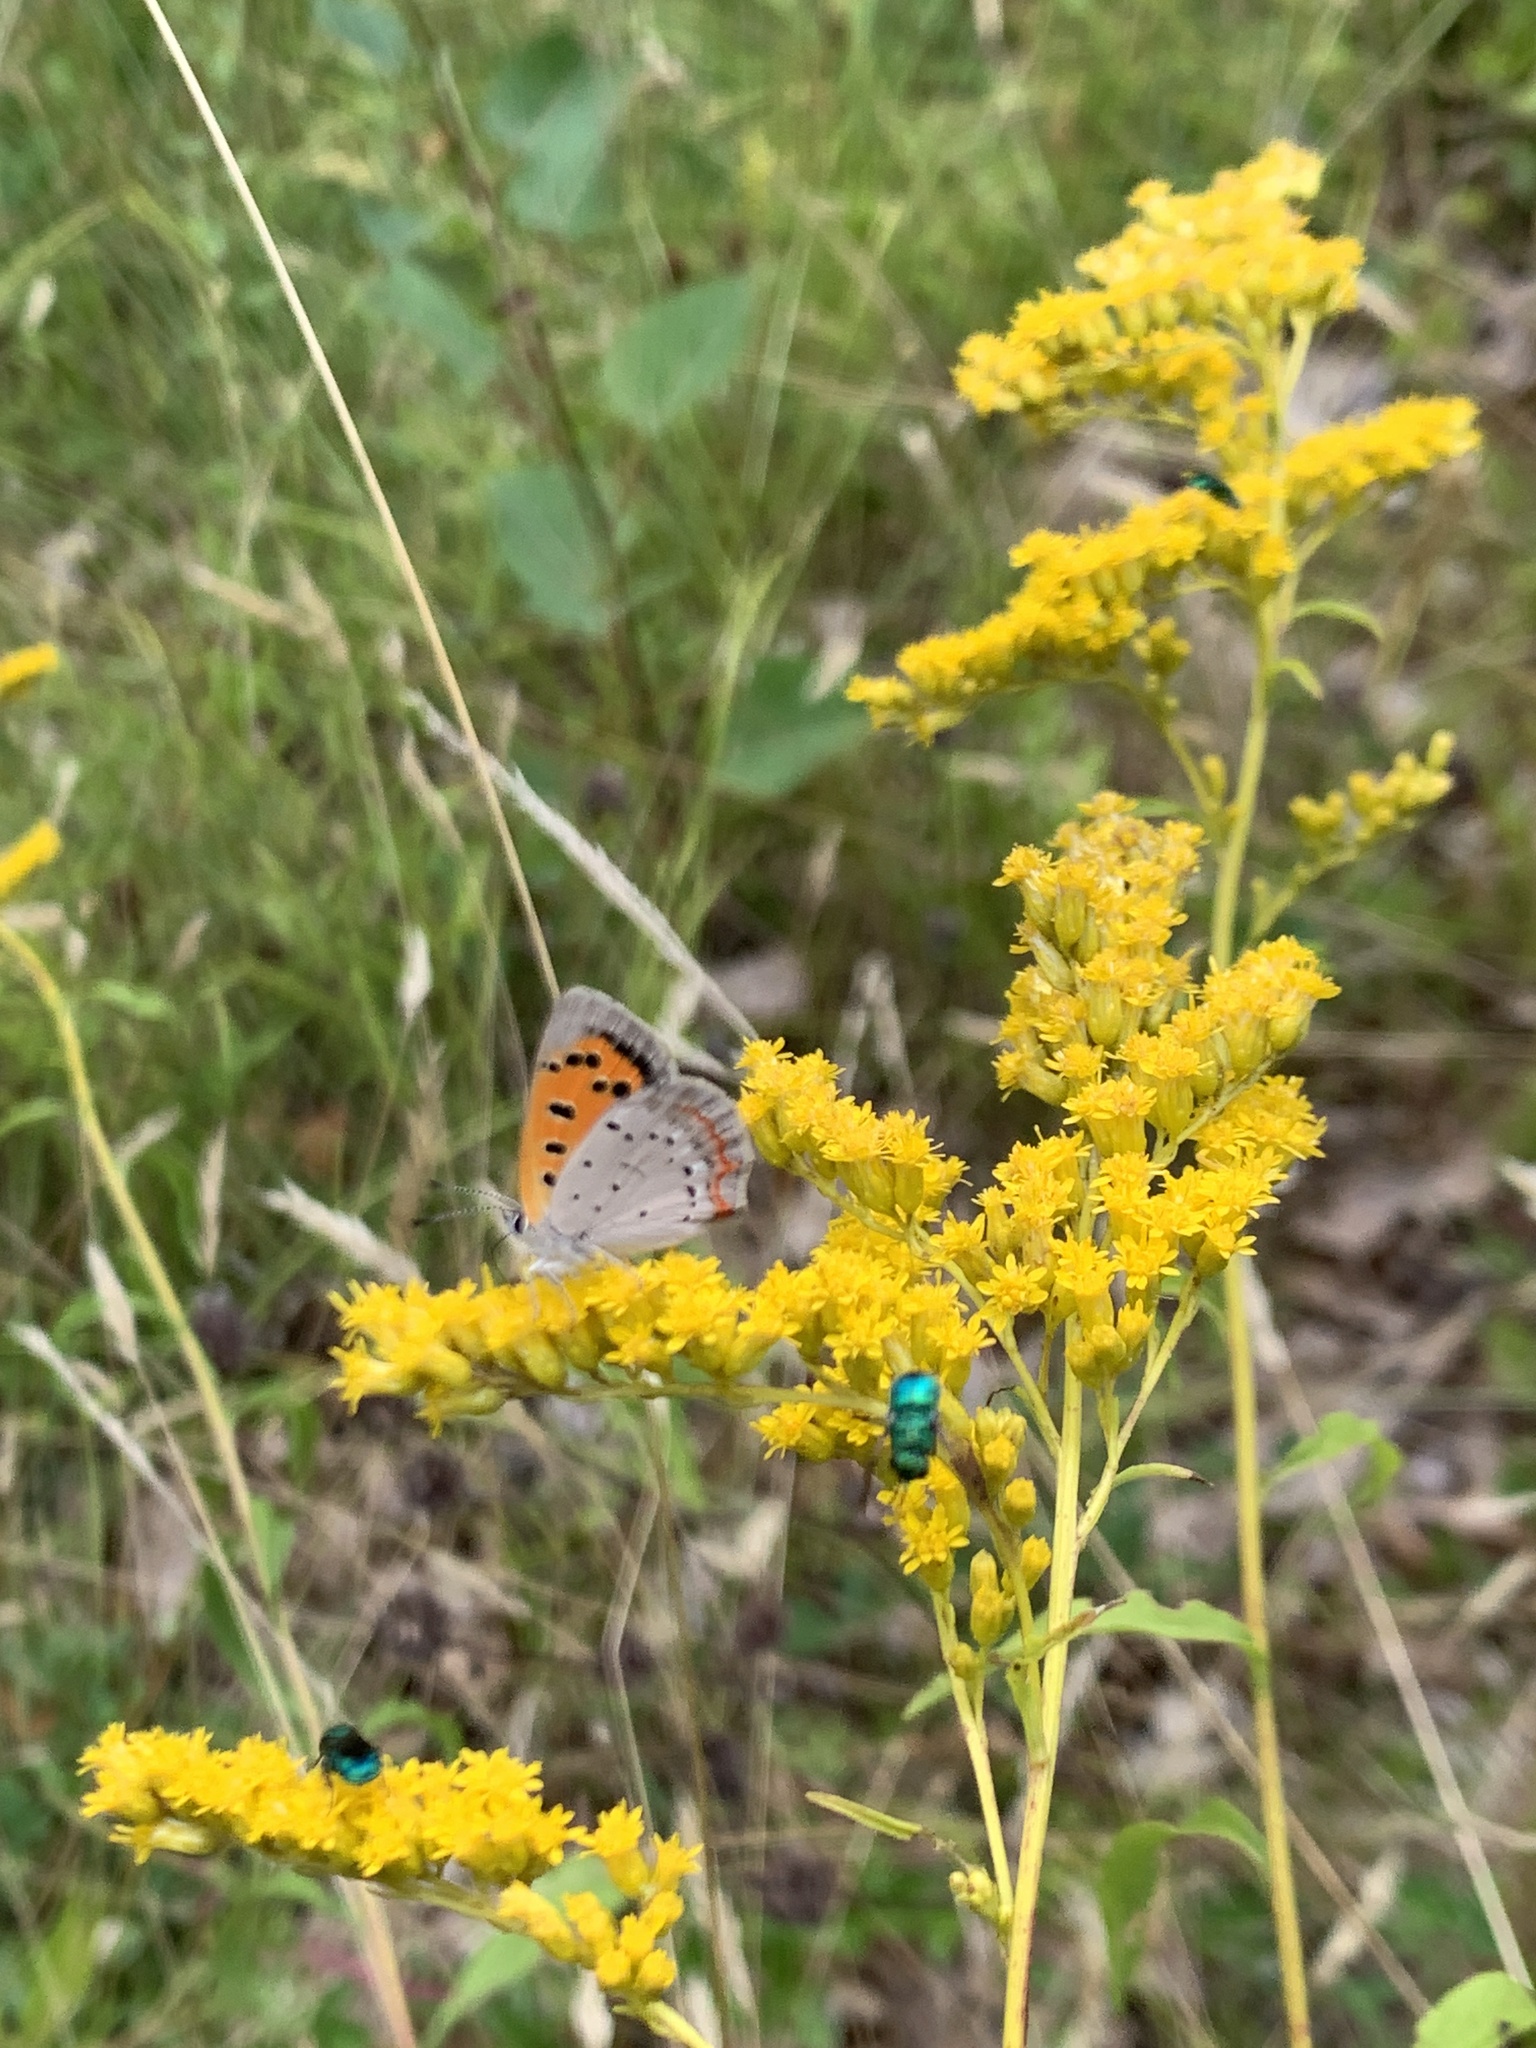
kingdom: Animalia
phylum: Arthropoda
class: Insecta
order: Lepidoptera
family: Lycaenidae
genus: Lycaena
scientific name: Lycaena hypophlaeas
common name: American copper
